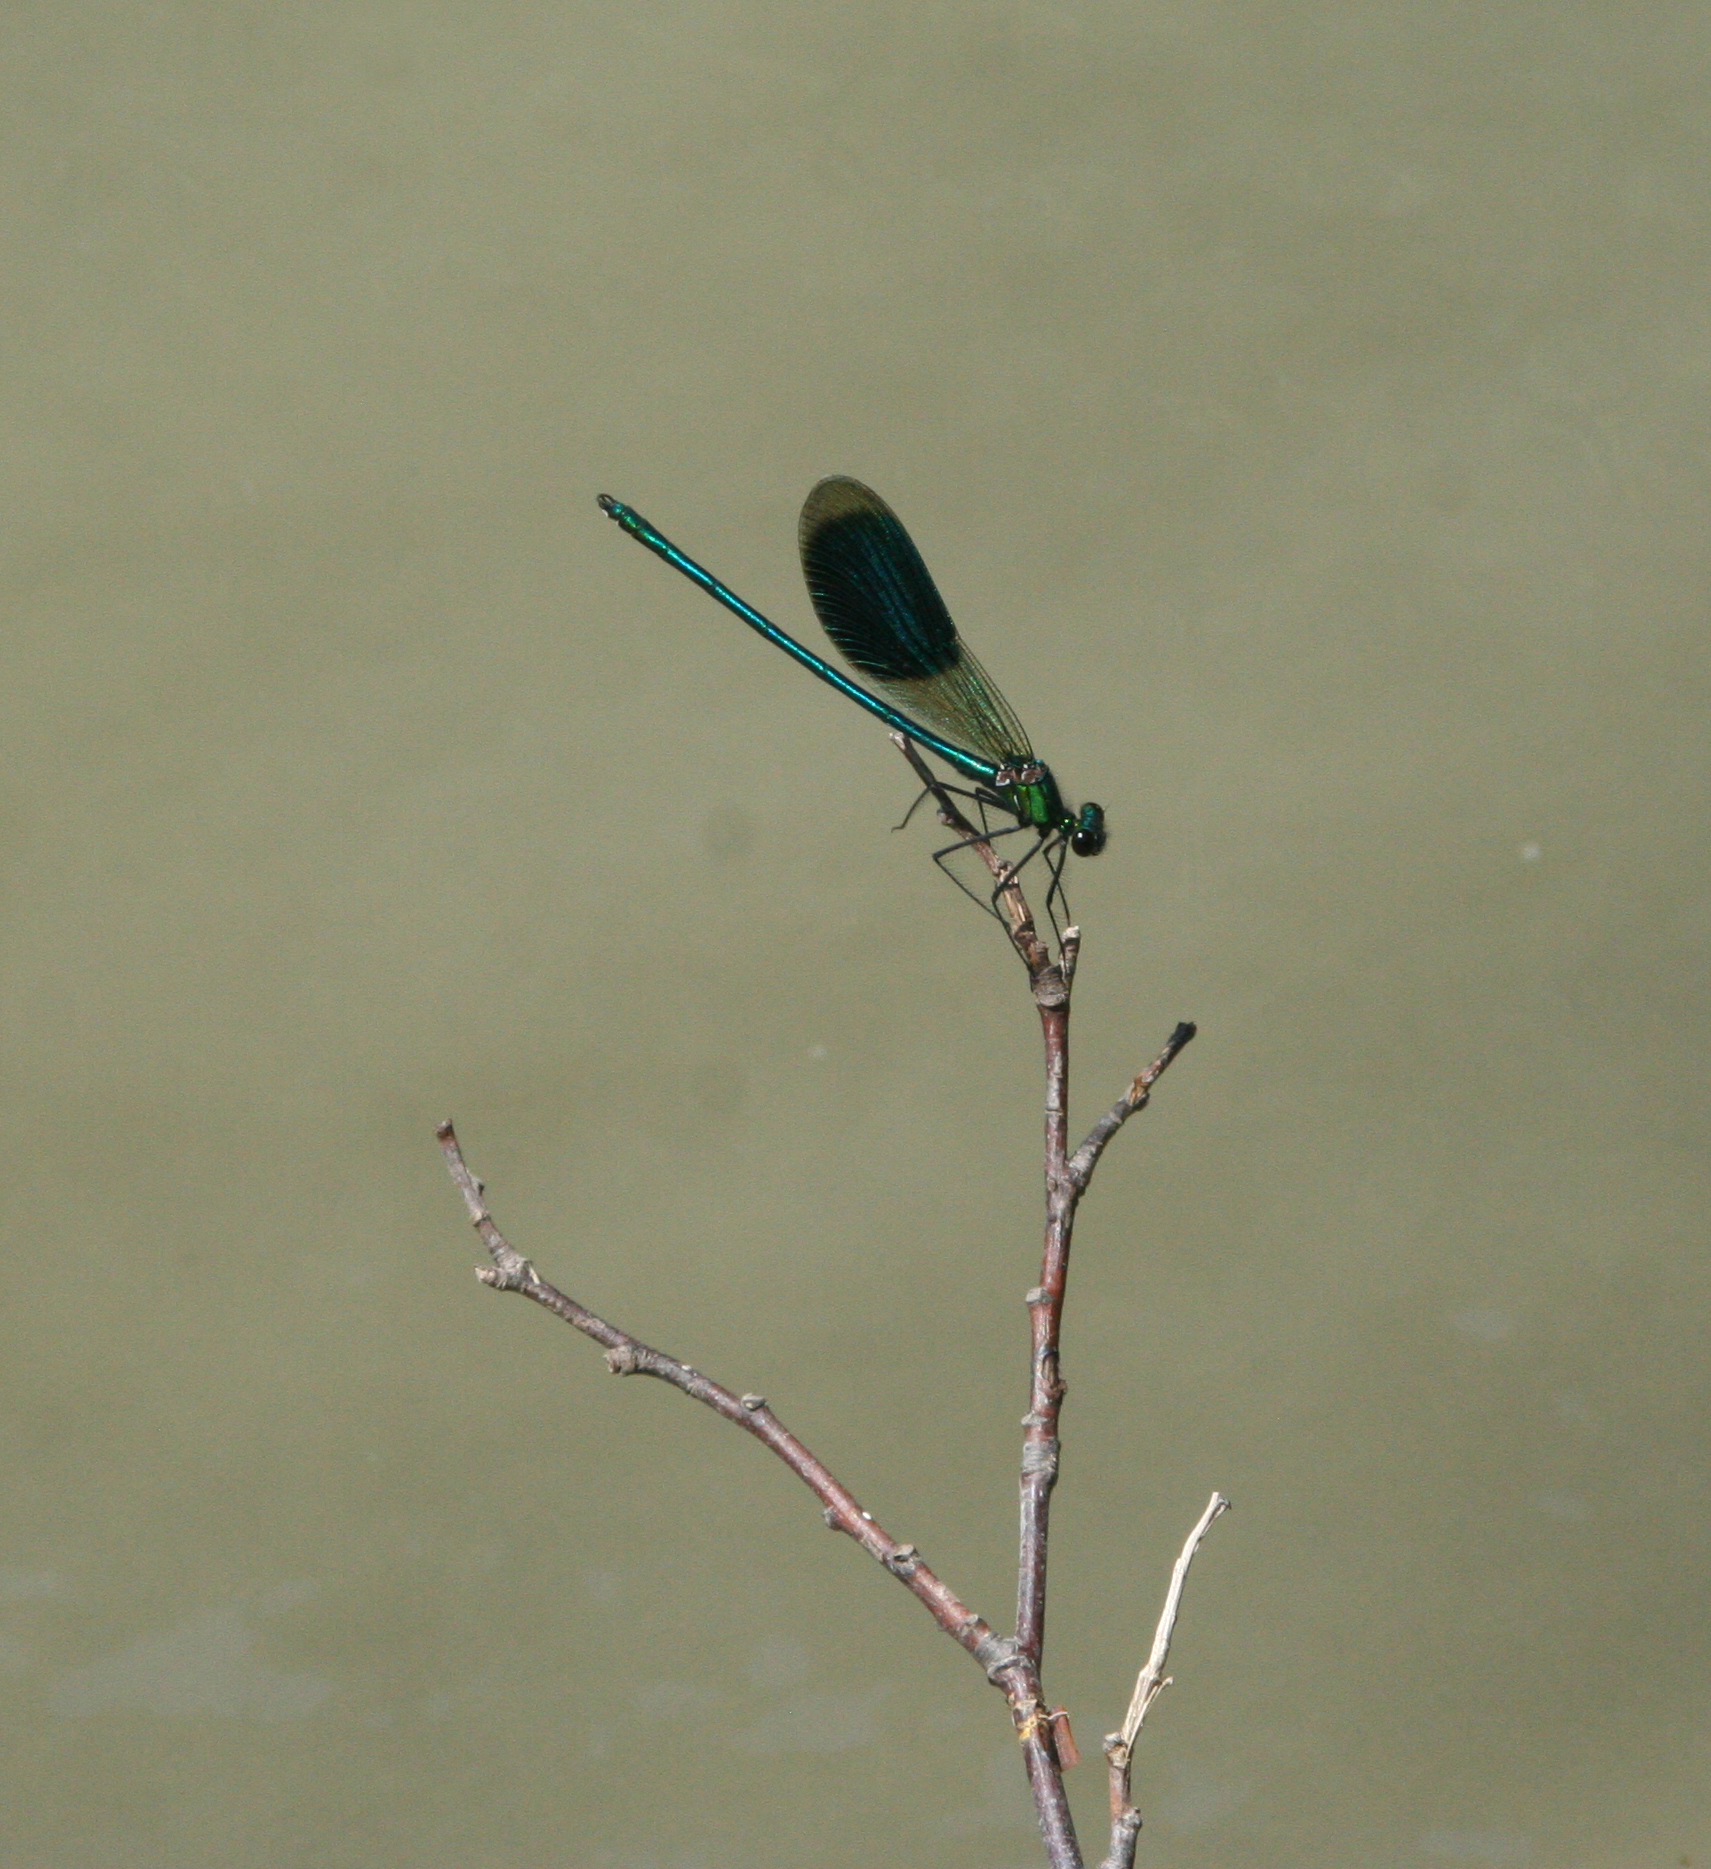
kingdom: Animalia
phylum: Arthropoda
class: Insecta
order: Odonata
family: Calopterygidae
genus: Calopteryx
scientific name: Calopteryx splendens
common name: Banded demoiselle
